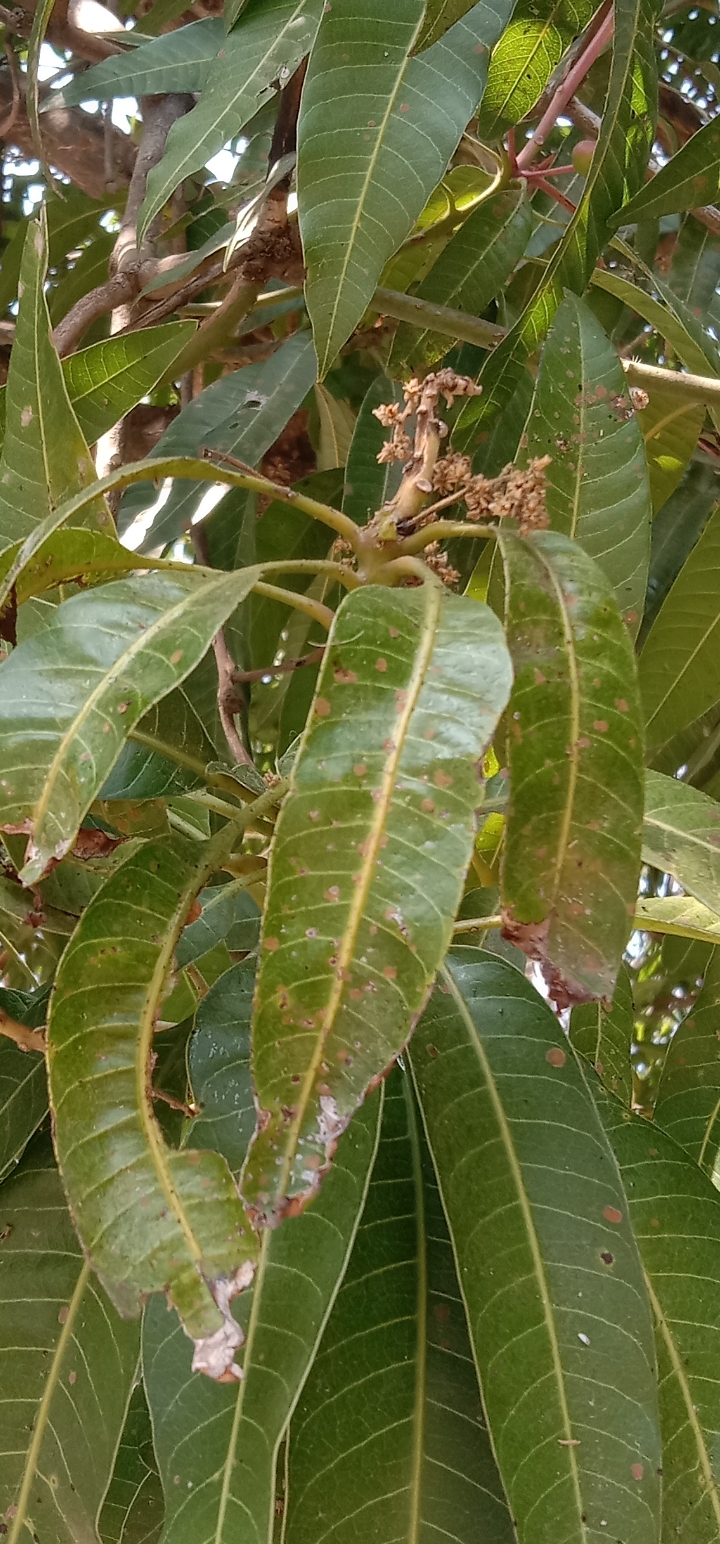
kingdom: Plantae
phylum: Chlorophyta
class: Ulvophyceae
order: Trentepohliales
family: Trentepohliaceae
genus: Cephaleuros
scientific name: Cephaleuros virescens
